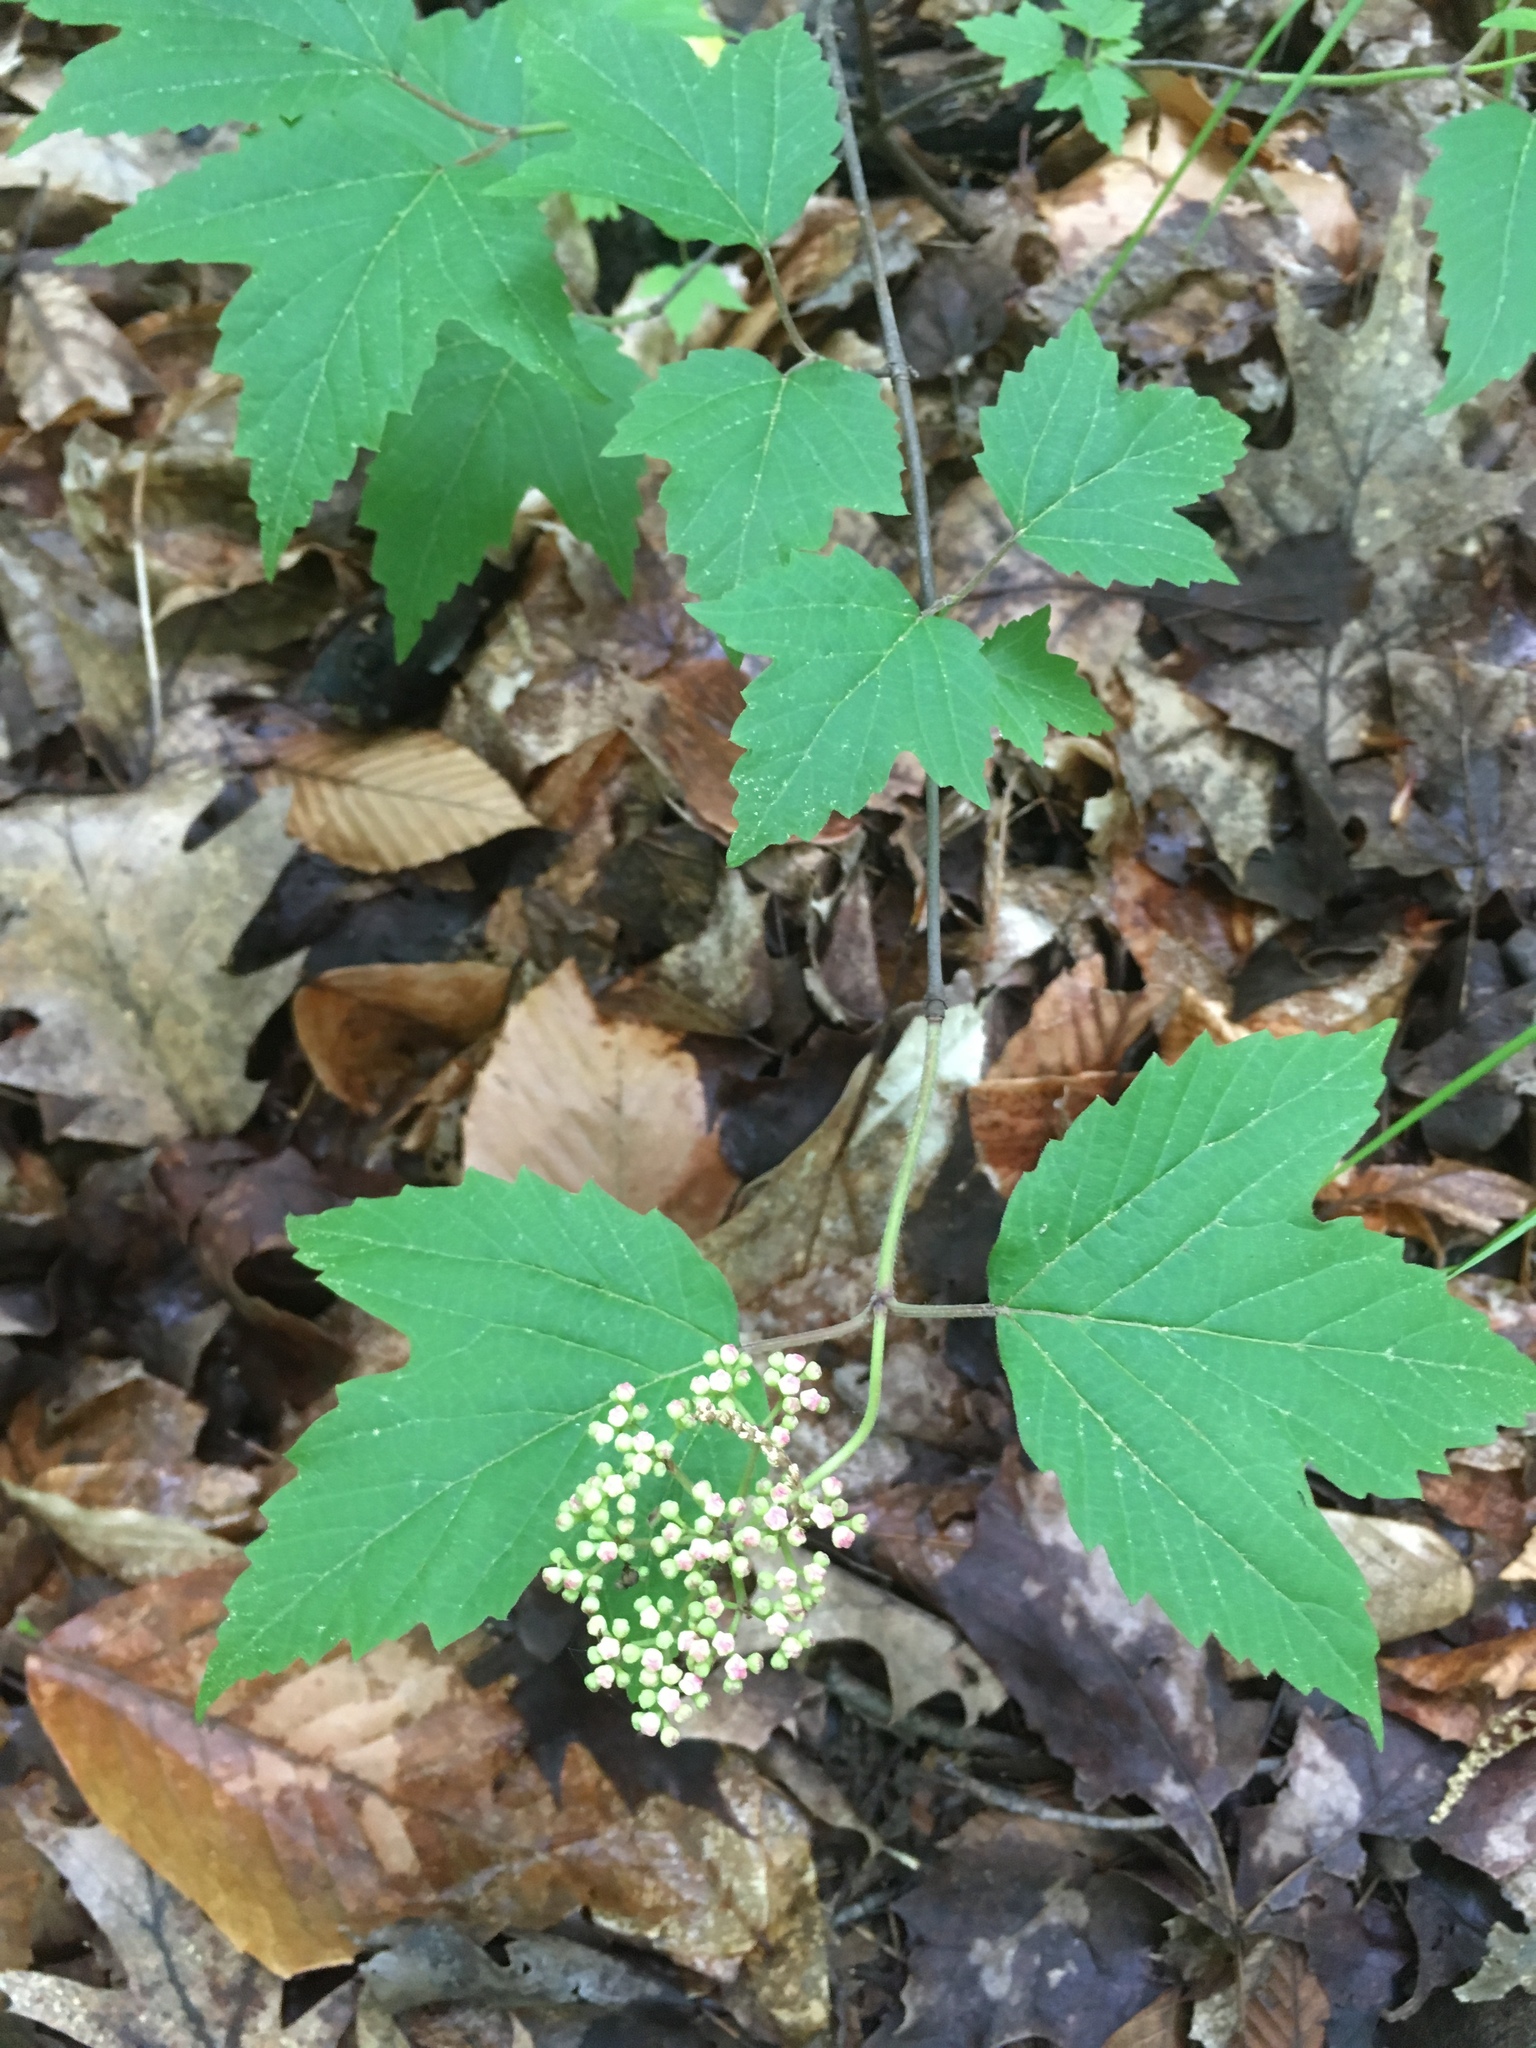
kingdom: Plantae
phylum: Tracheophyta
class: Magnoliopsida
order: Dipsacales
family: Viburnaceae
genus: Viburnum
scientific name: Viburnum acerifolium
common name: Dockmackie
